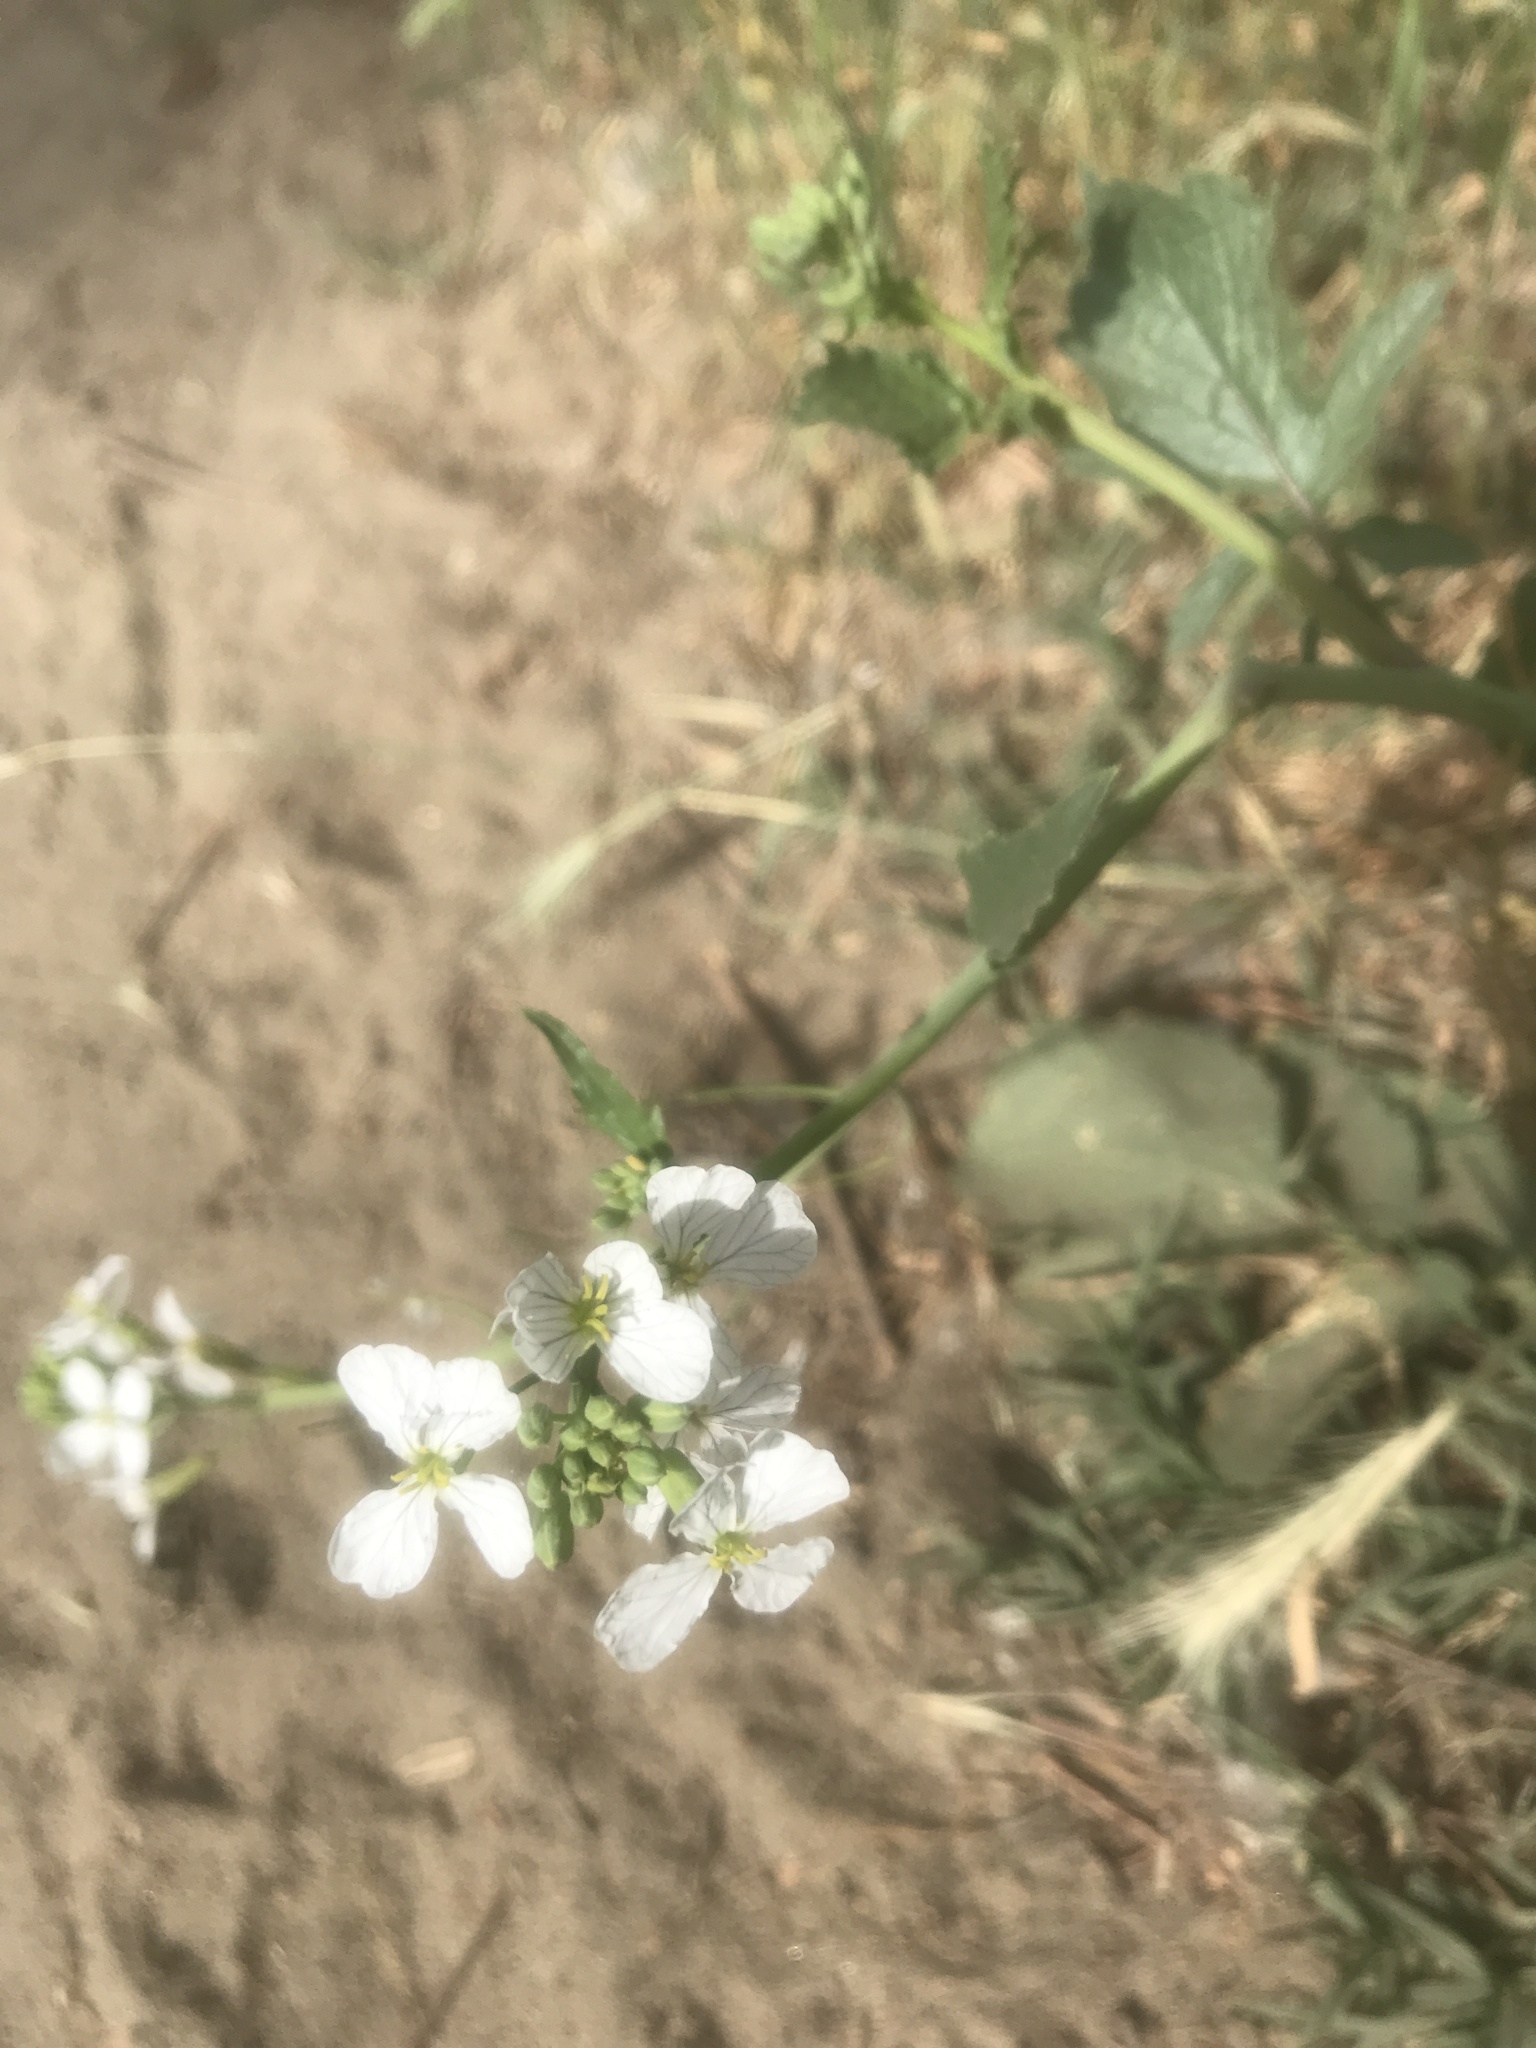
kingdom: Plantae
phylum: Tracheophyta
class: Magnoliopsida
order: Brassicales
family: Brassicaceae
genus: Raphanus
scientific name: Raphanus sativus
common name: Cultivated radish
